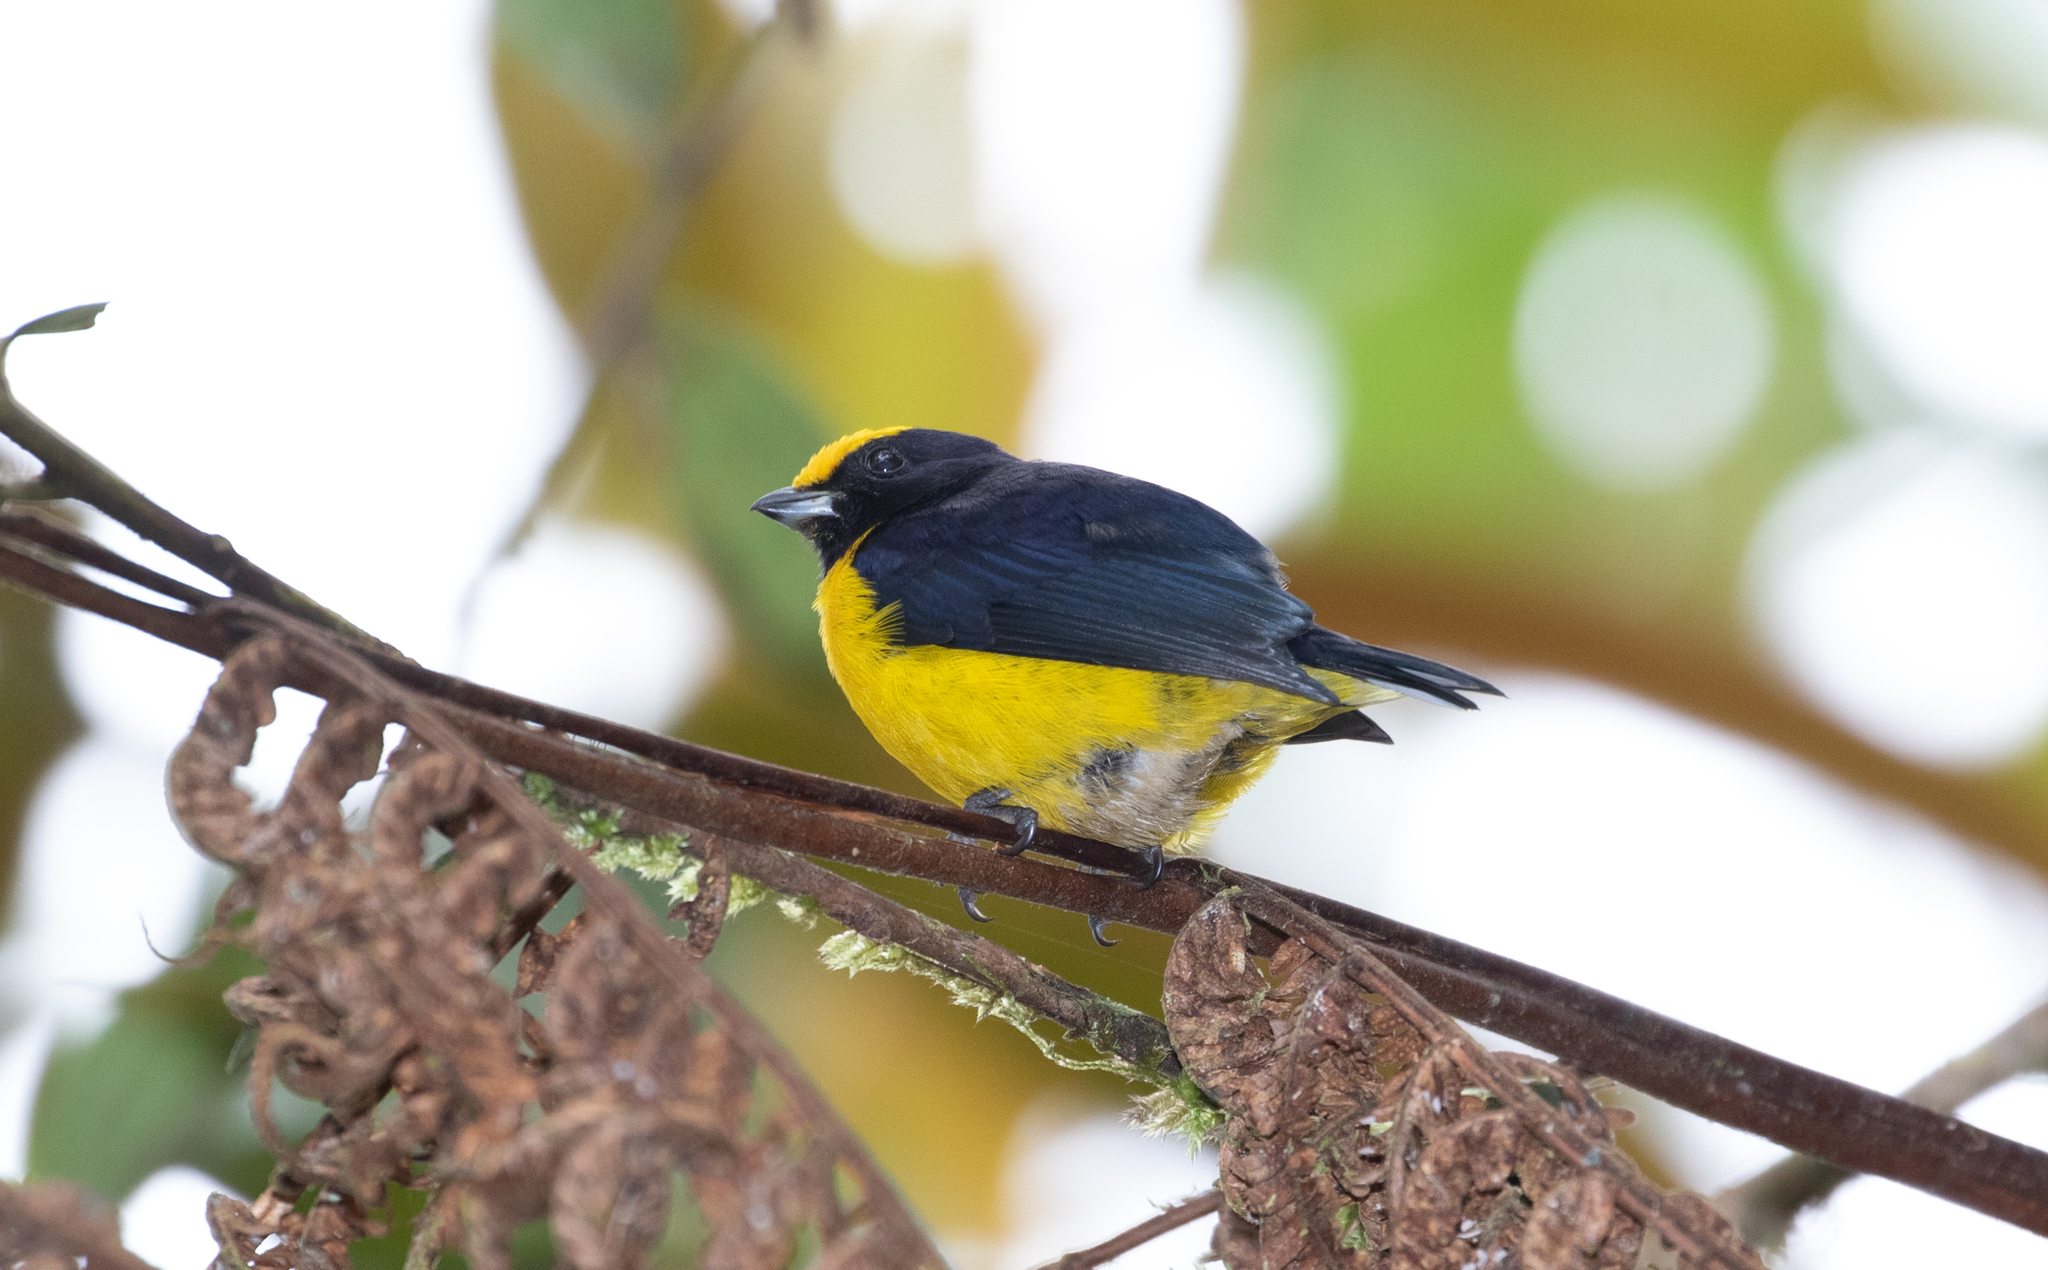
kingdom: Animalia
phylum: Chordata
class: Aves
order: Passeriformes
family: Fringillidae
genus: Euphonia
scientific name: Euphonia xanthogaster
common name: Orange-bellied euphonia
